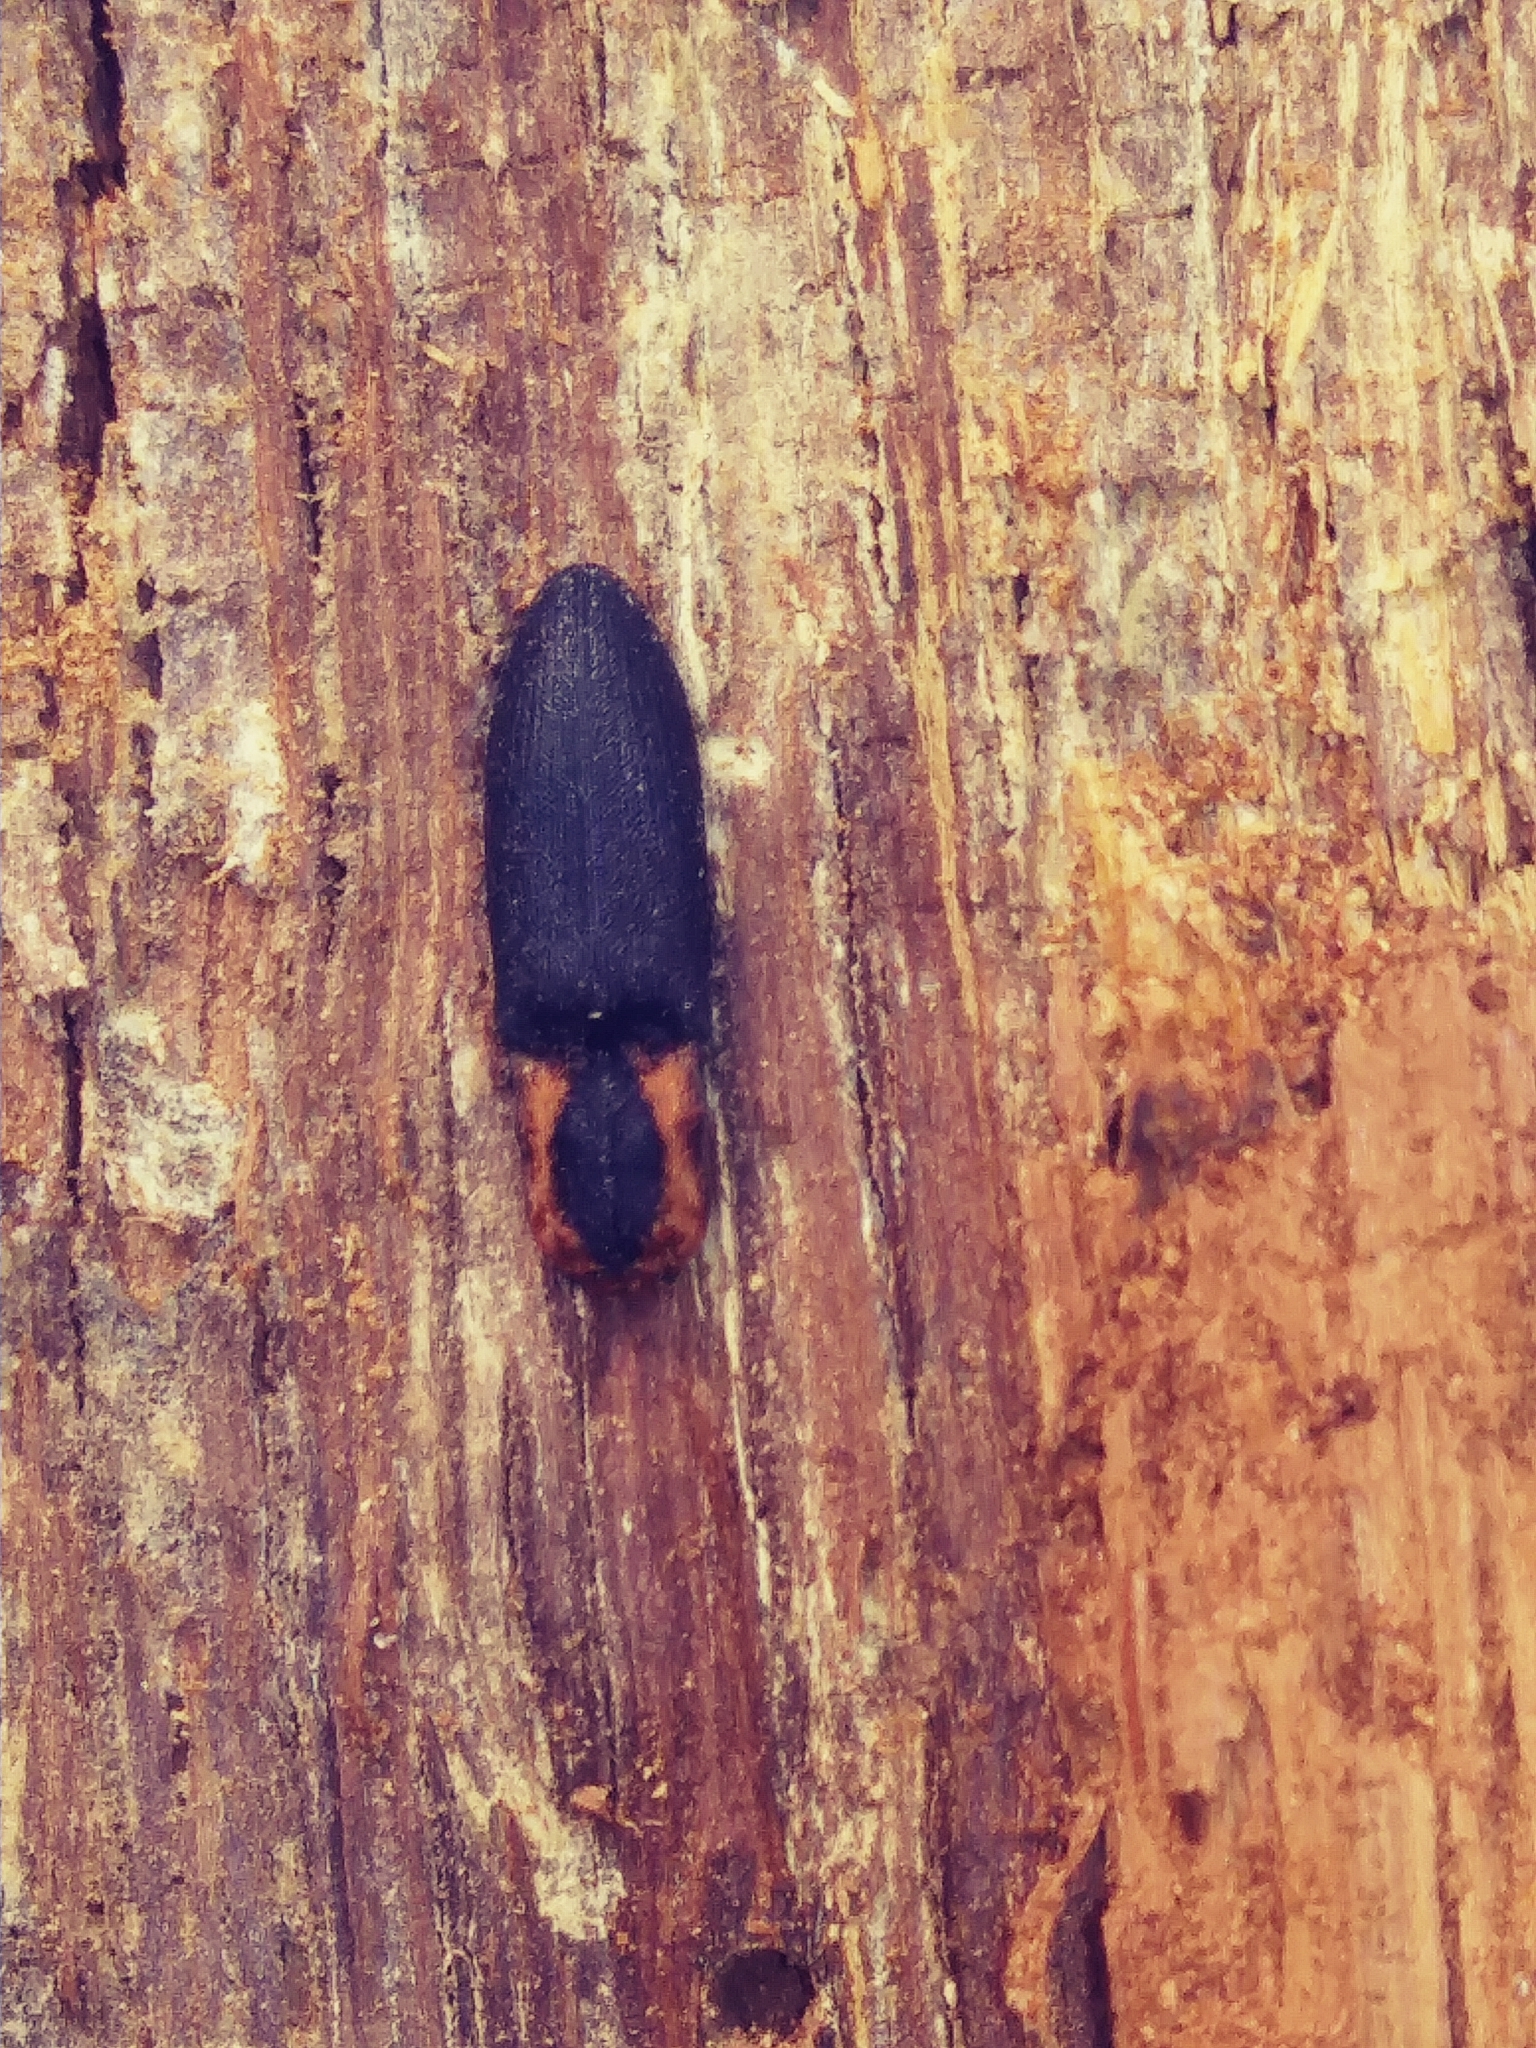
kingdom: Animalia
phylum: Arthropoda
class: Insecta
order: Coleoptera
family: Elateridae
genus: Lacon
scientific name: Lacon discoideus
